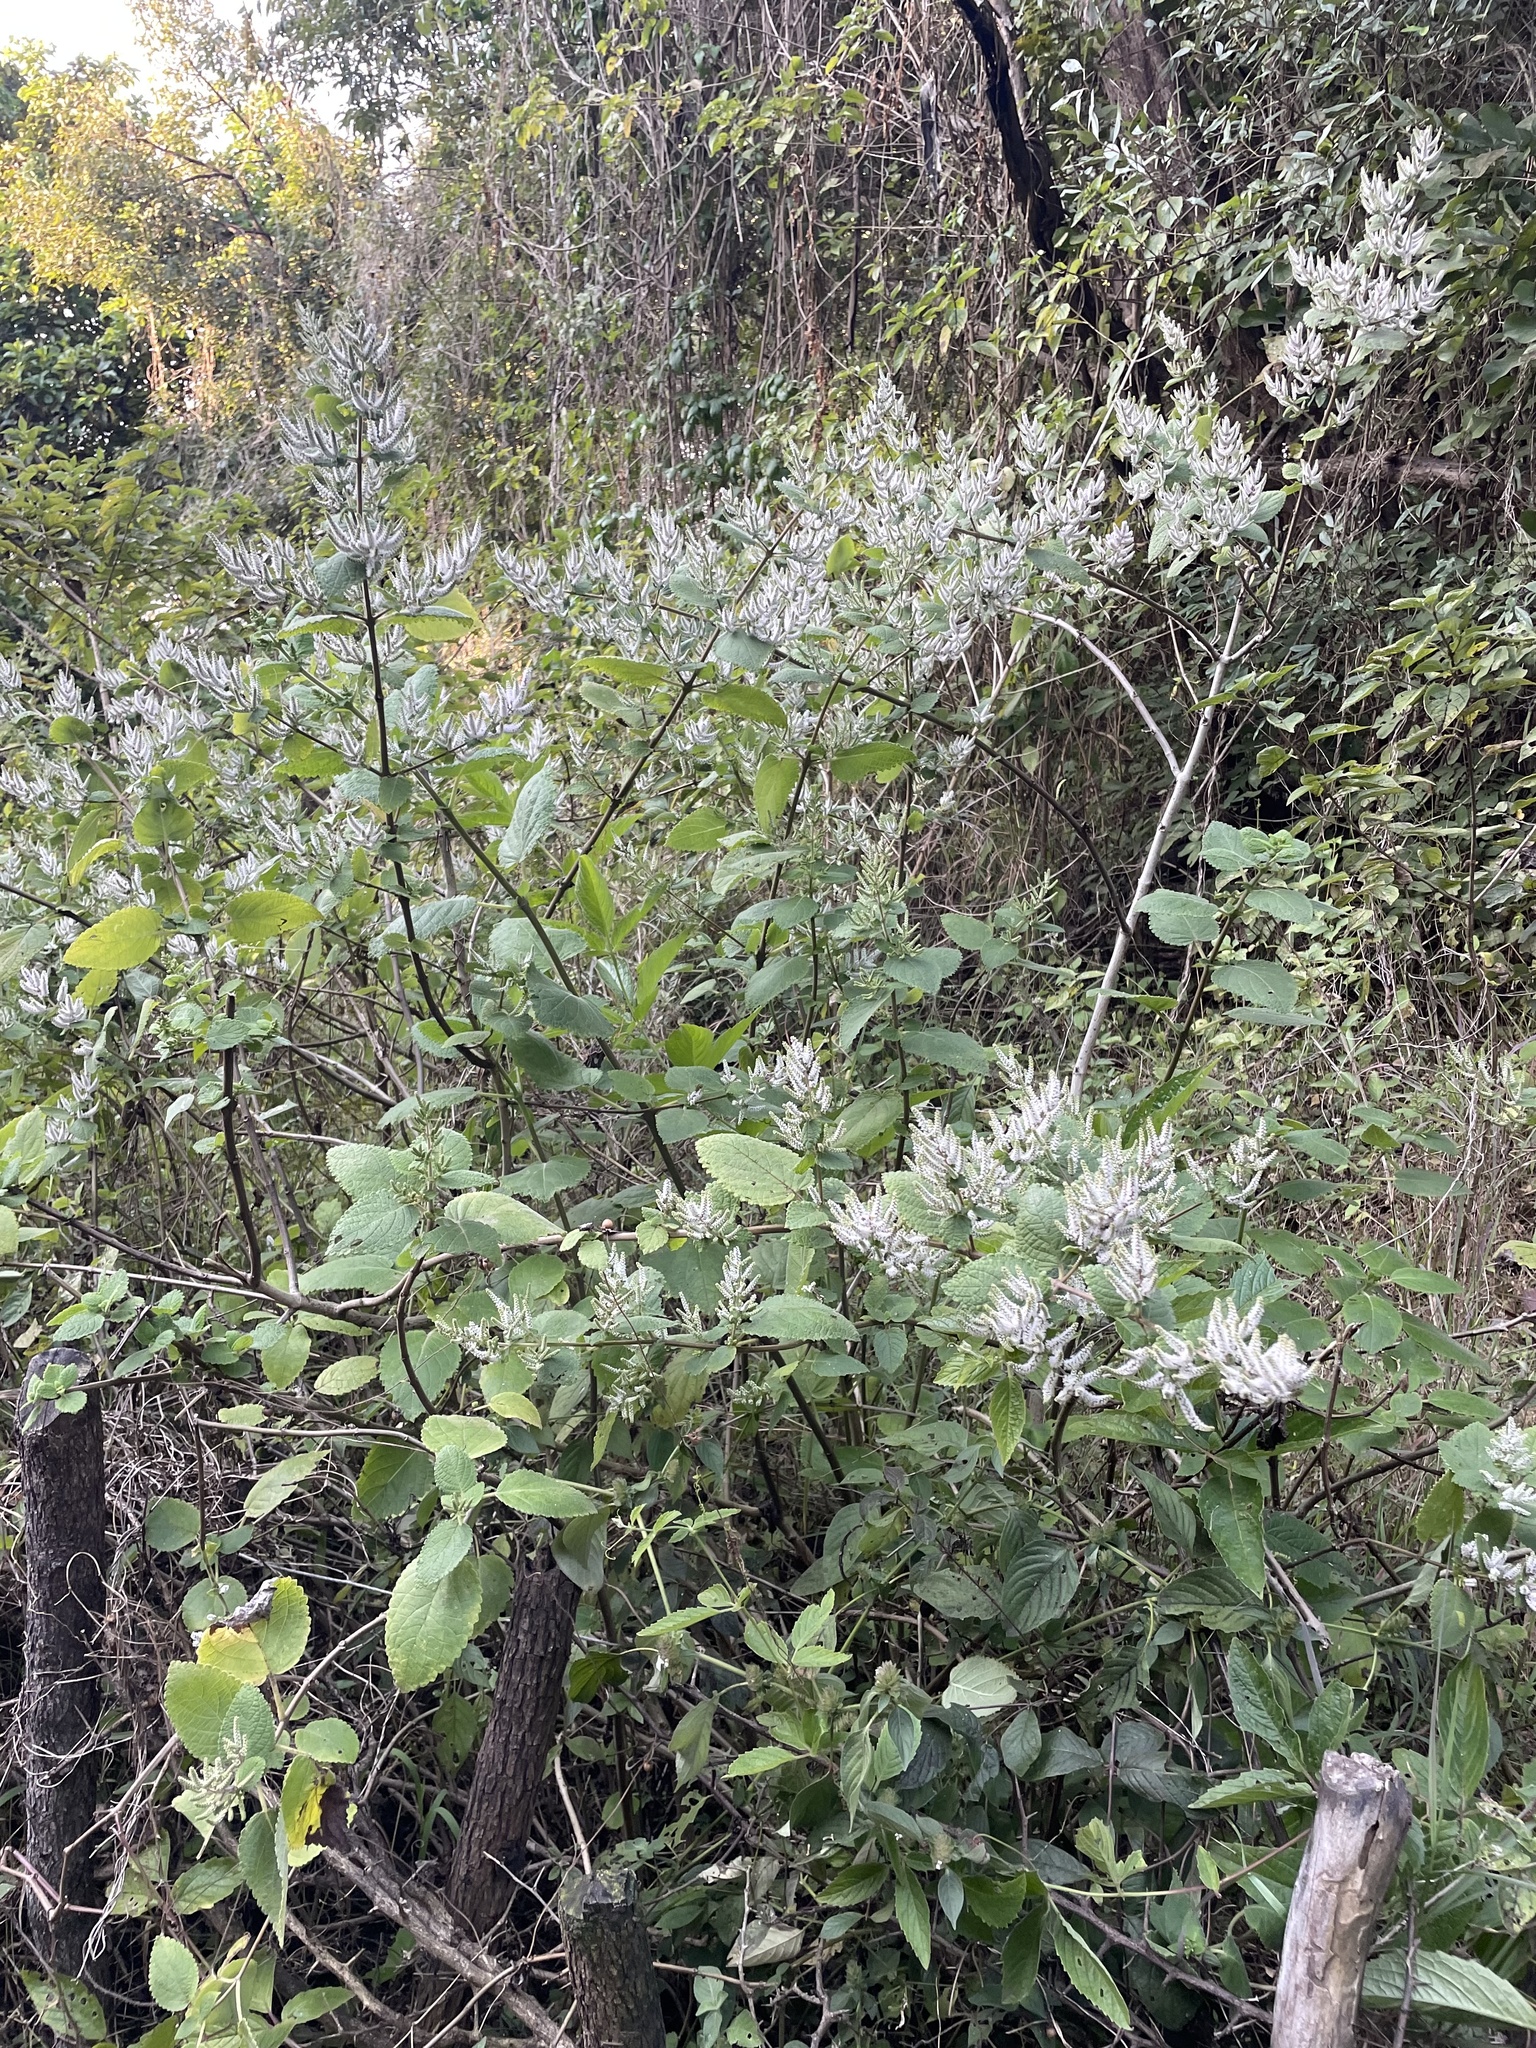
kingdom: Plantae
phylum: Tracheophyta
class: Magnoliopsida
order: Lamiales
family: Lamiaceae
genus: Tetradenia
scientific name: Tetradenia riparia
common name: Gingerbush
